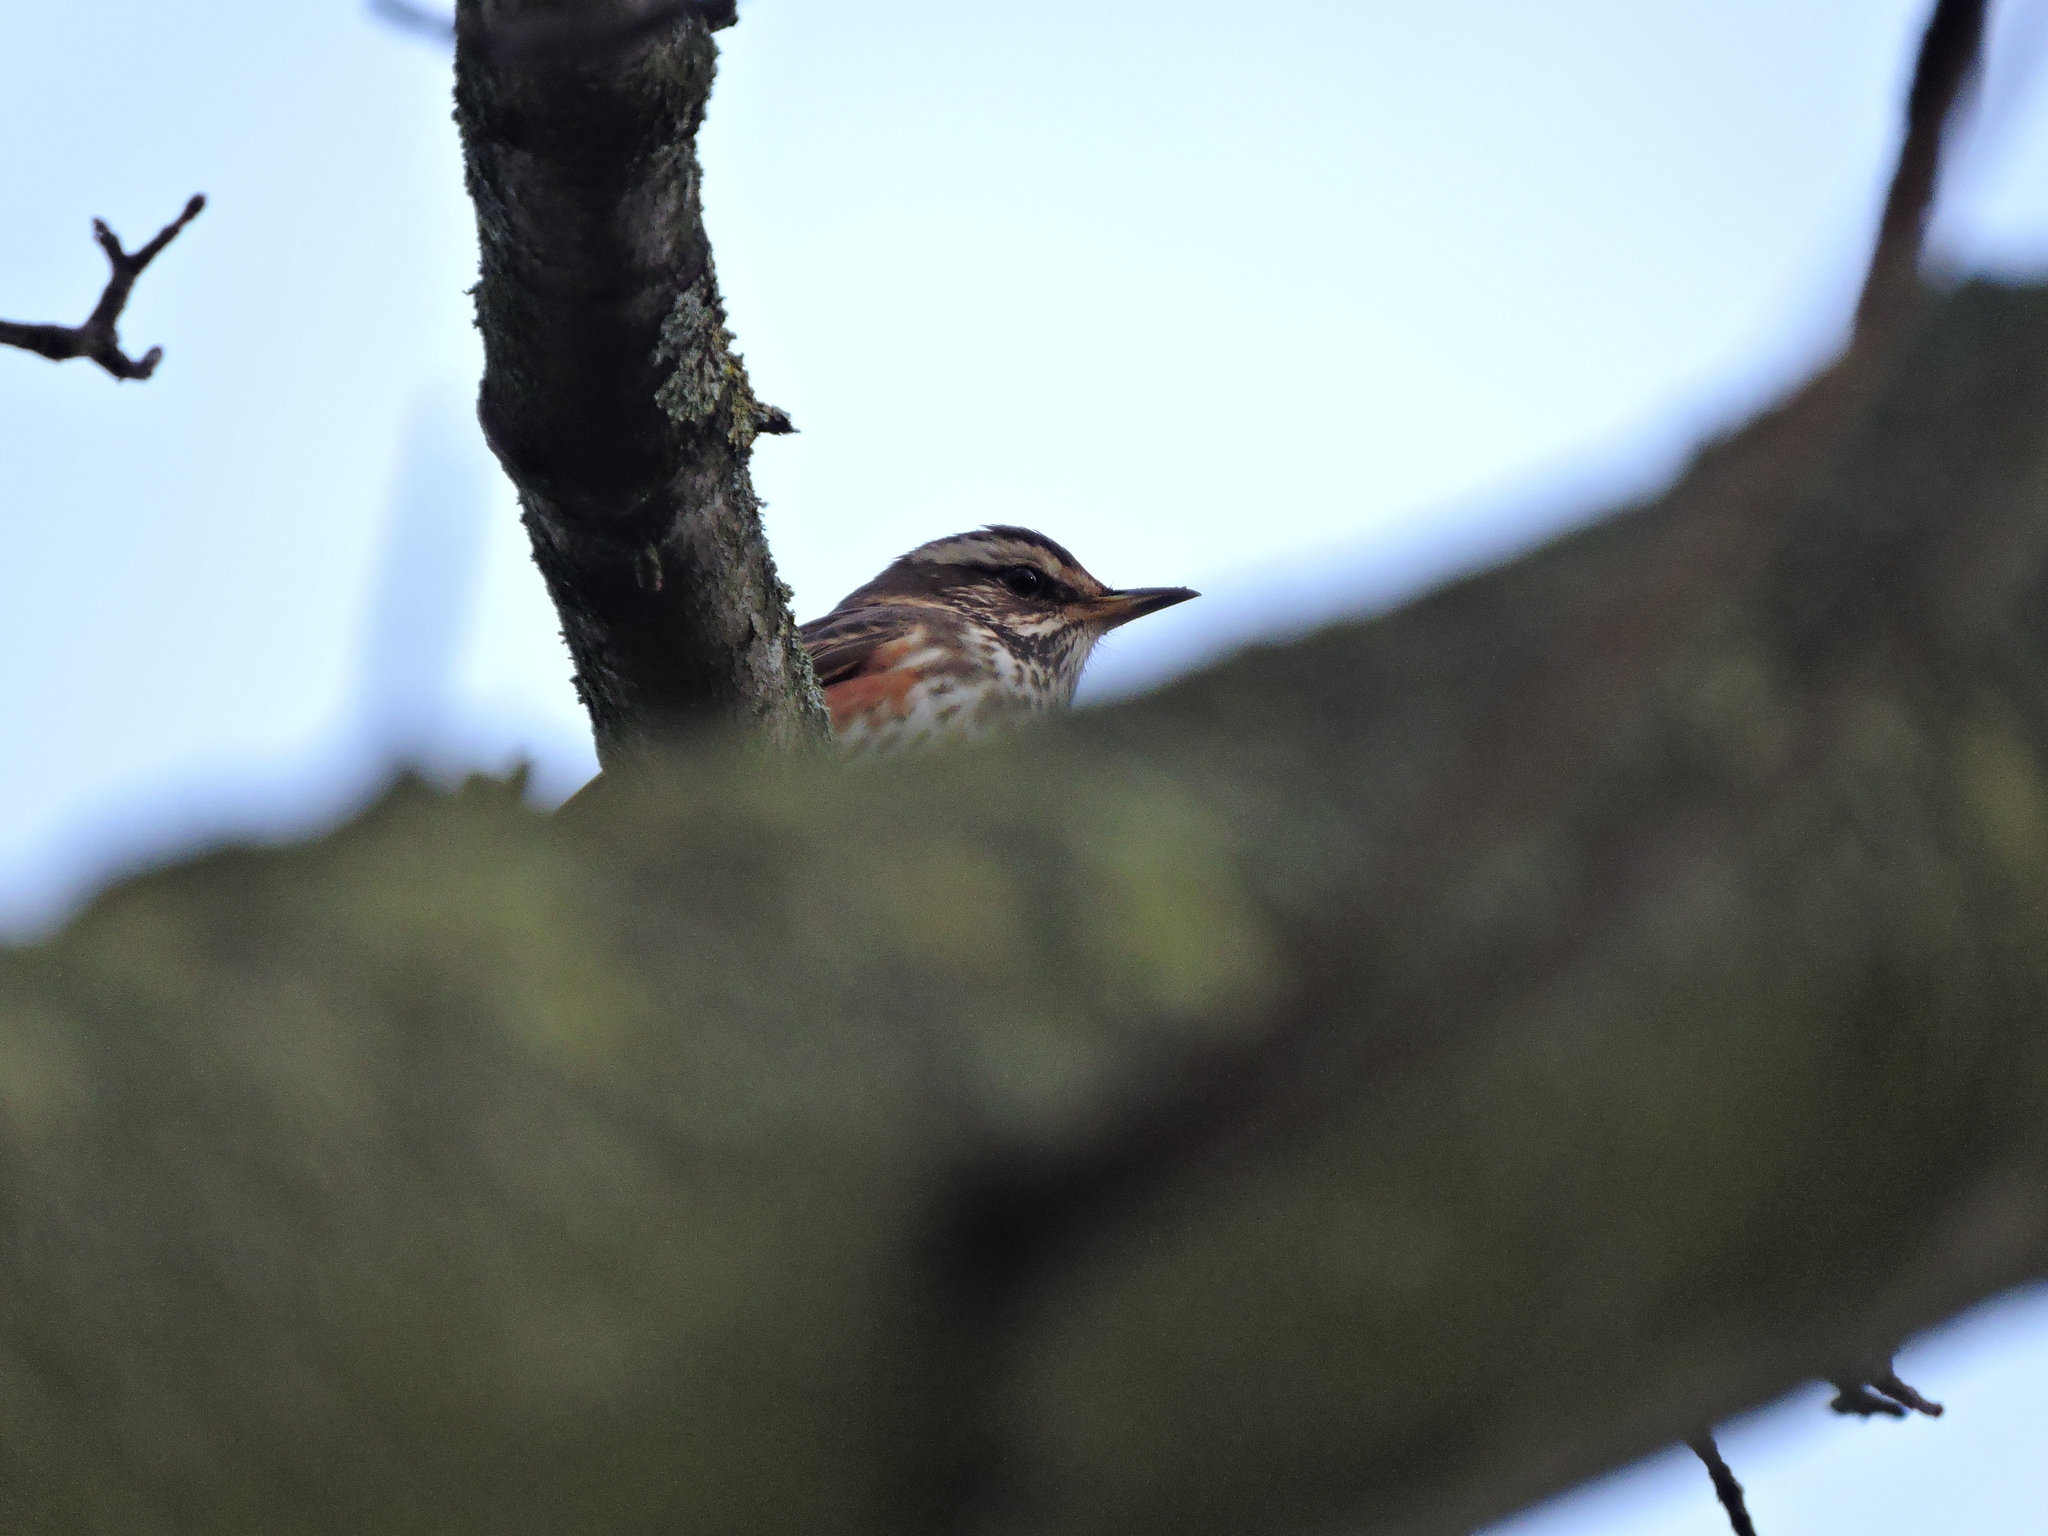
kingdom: Animalia
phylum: Chordata
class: Aves
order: Passeriformes
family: Turdidae
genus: Turdus
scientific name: Turdus iliacus
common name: Redwing
